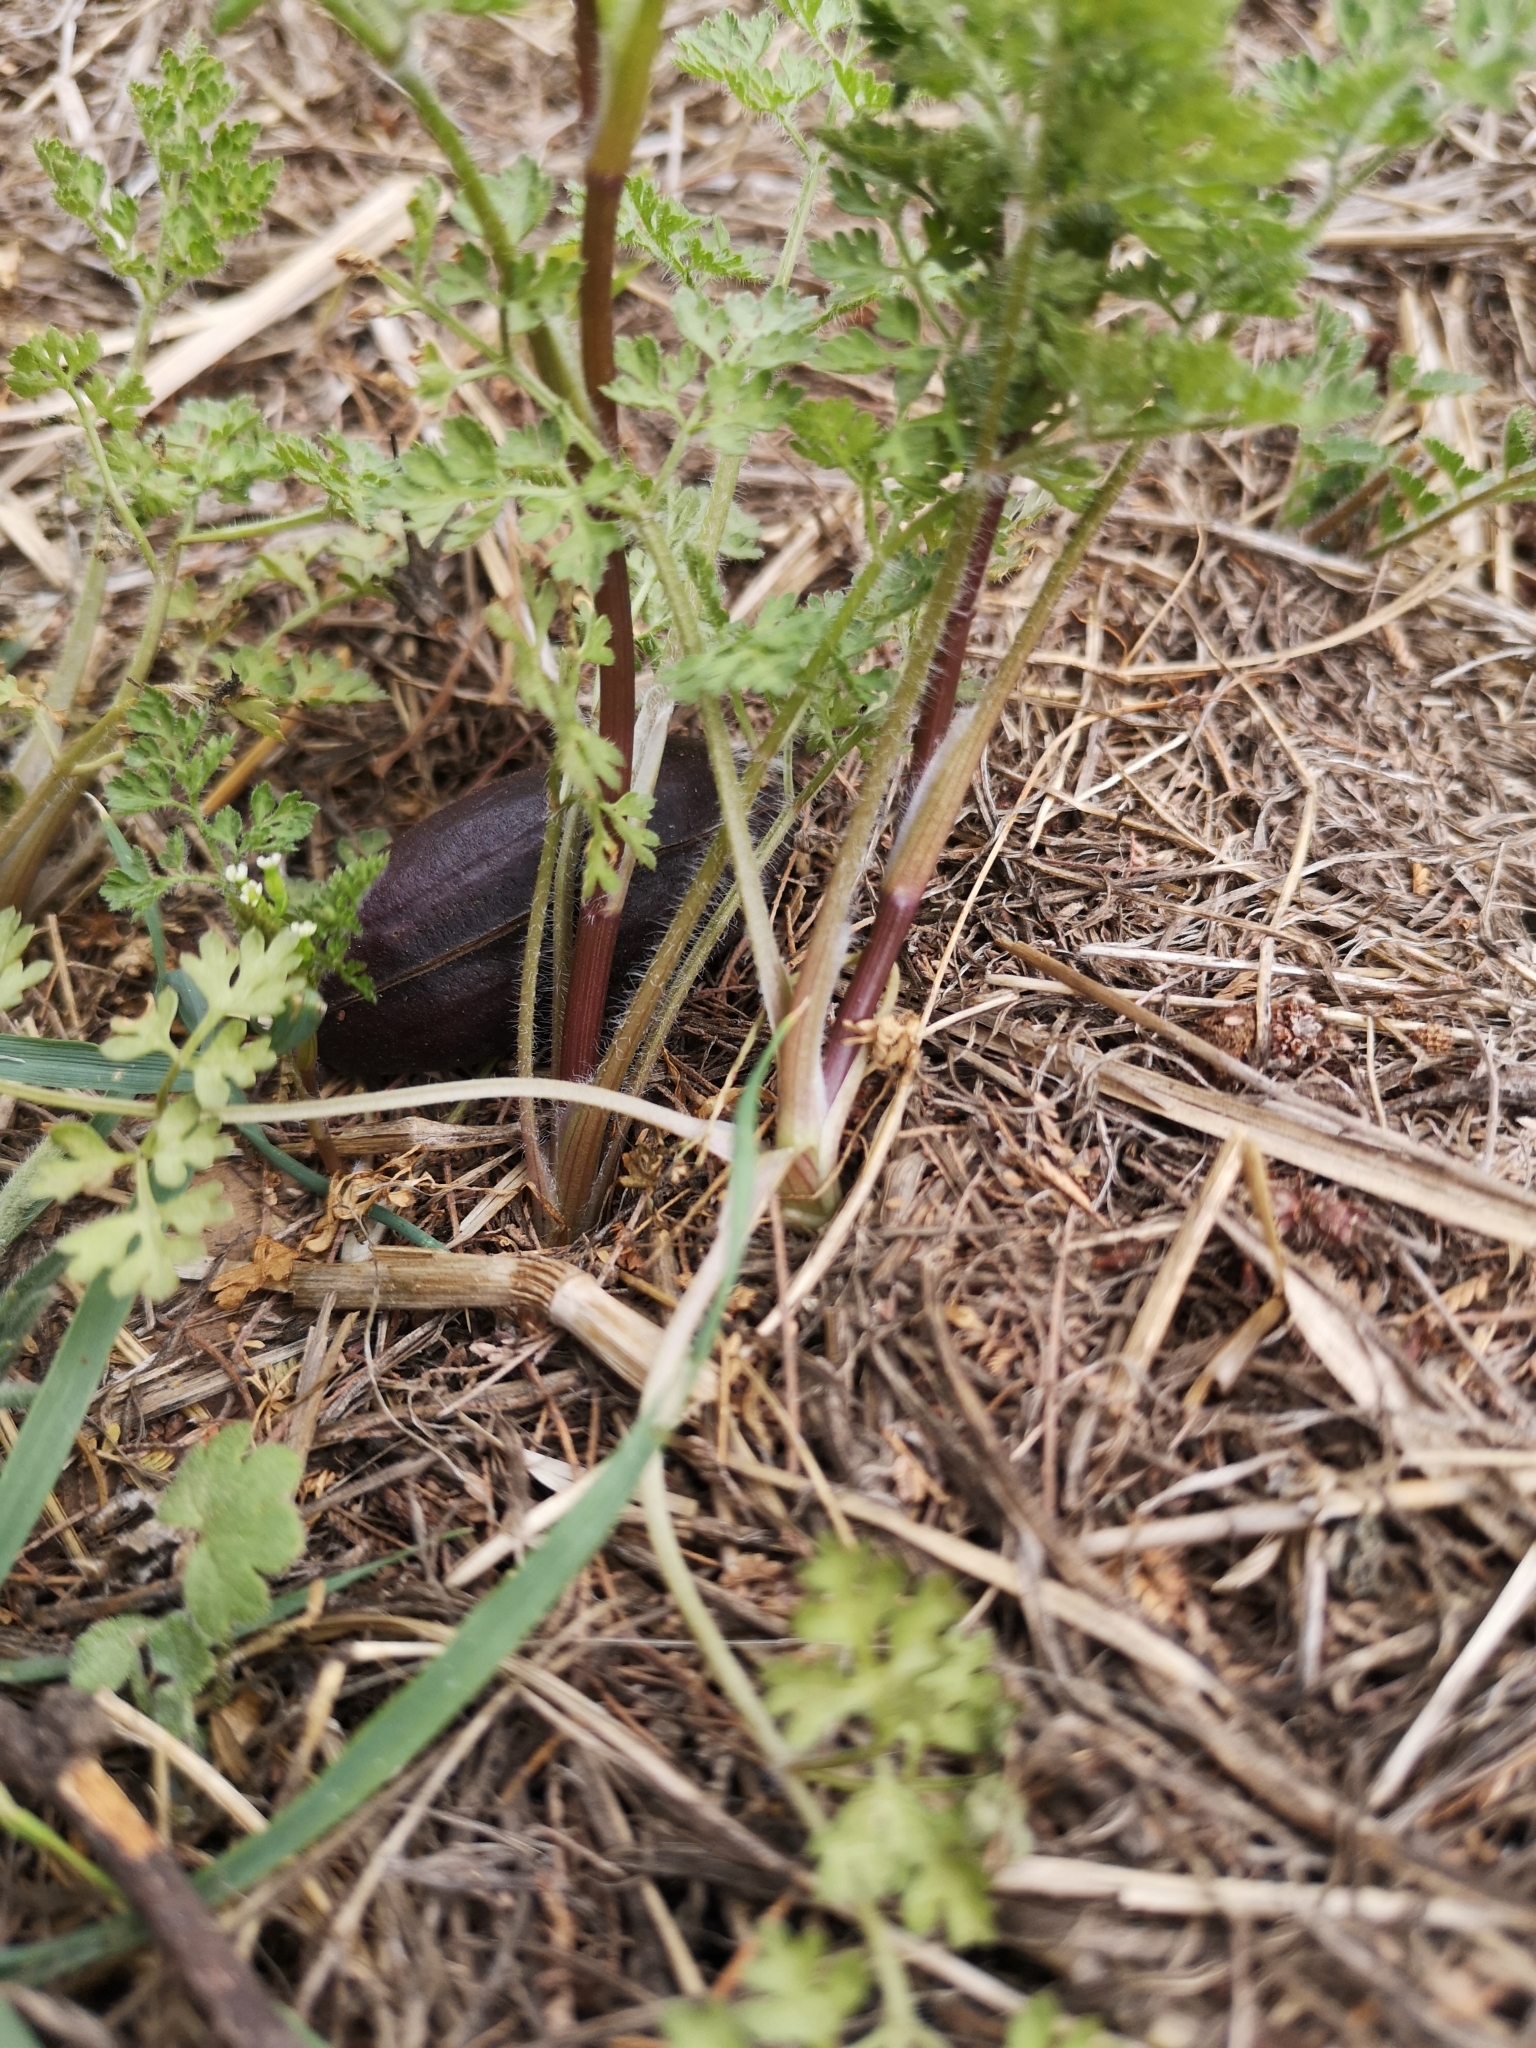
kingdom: Plantae
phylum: Tracheophyta
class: Magnoliopsida
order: Apiales
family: Apiaceae
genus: Anthriscus
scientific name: Anthriscus caucalis
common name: Bur chervil
